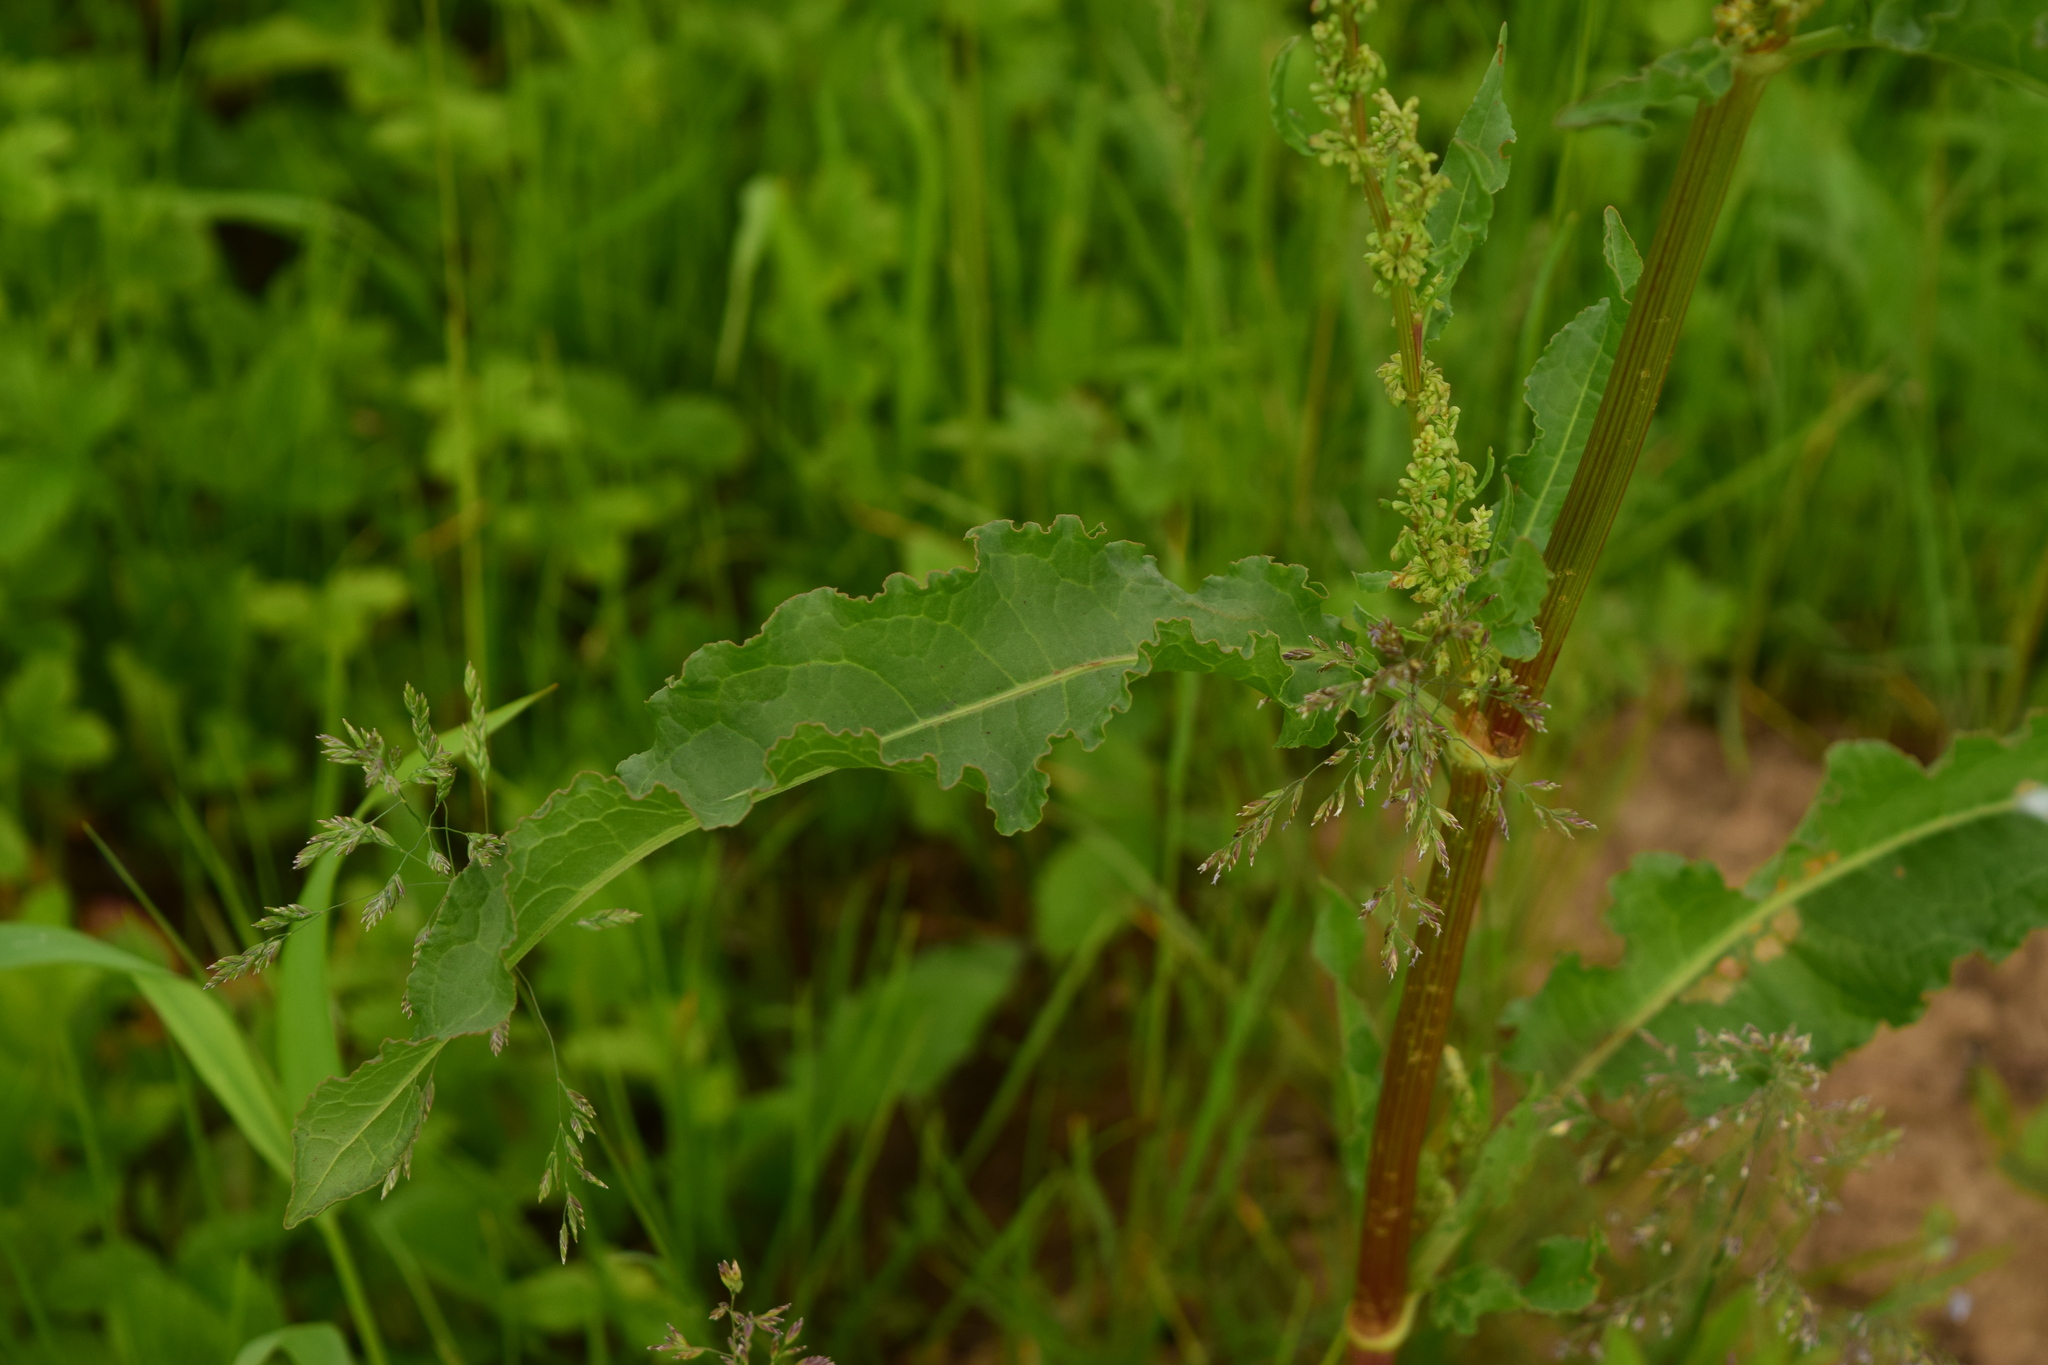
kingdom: Plantae
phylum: Tracheophyta
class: Magnoliopsida
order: Caryophyllales
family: Polygonaceae
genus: Rumex
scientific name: Rumex crispus
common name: Curled dock
